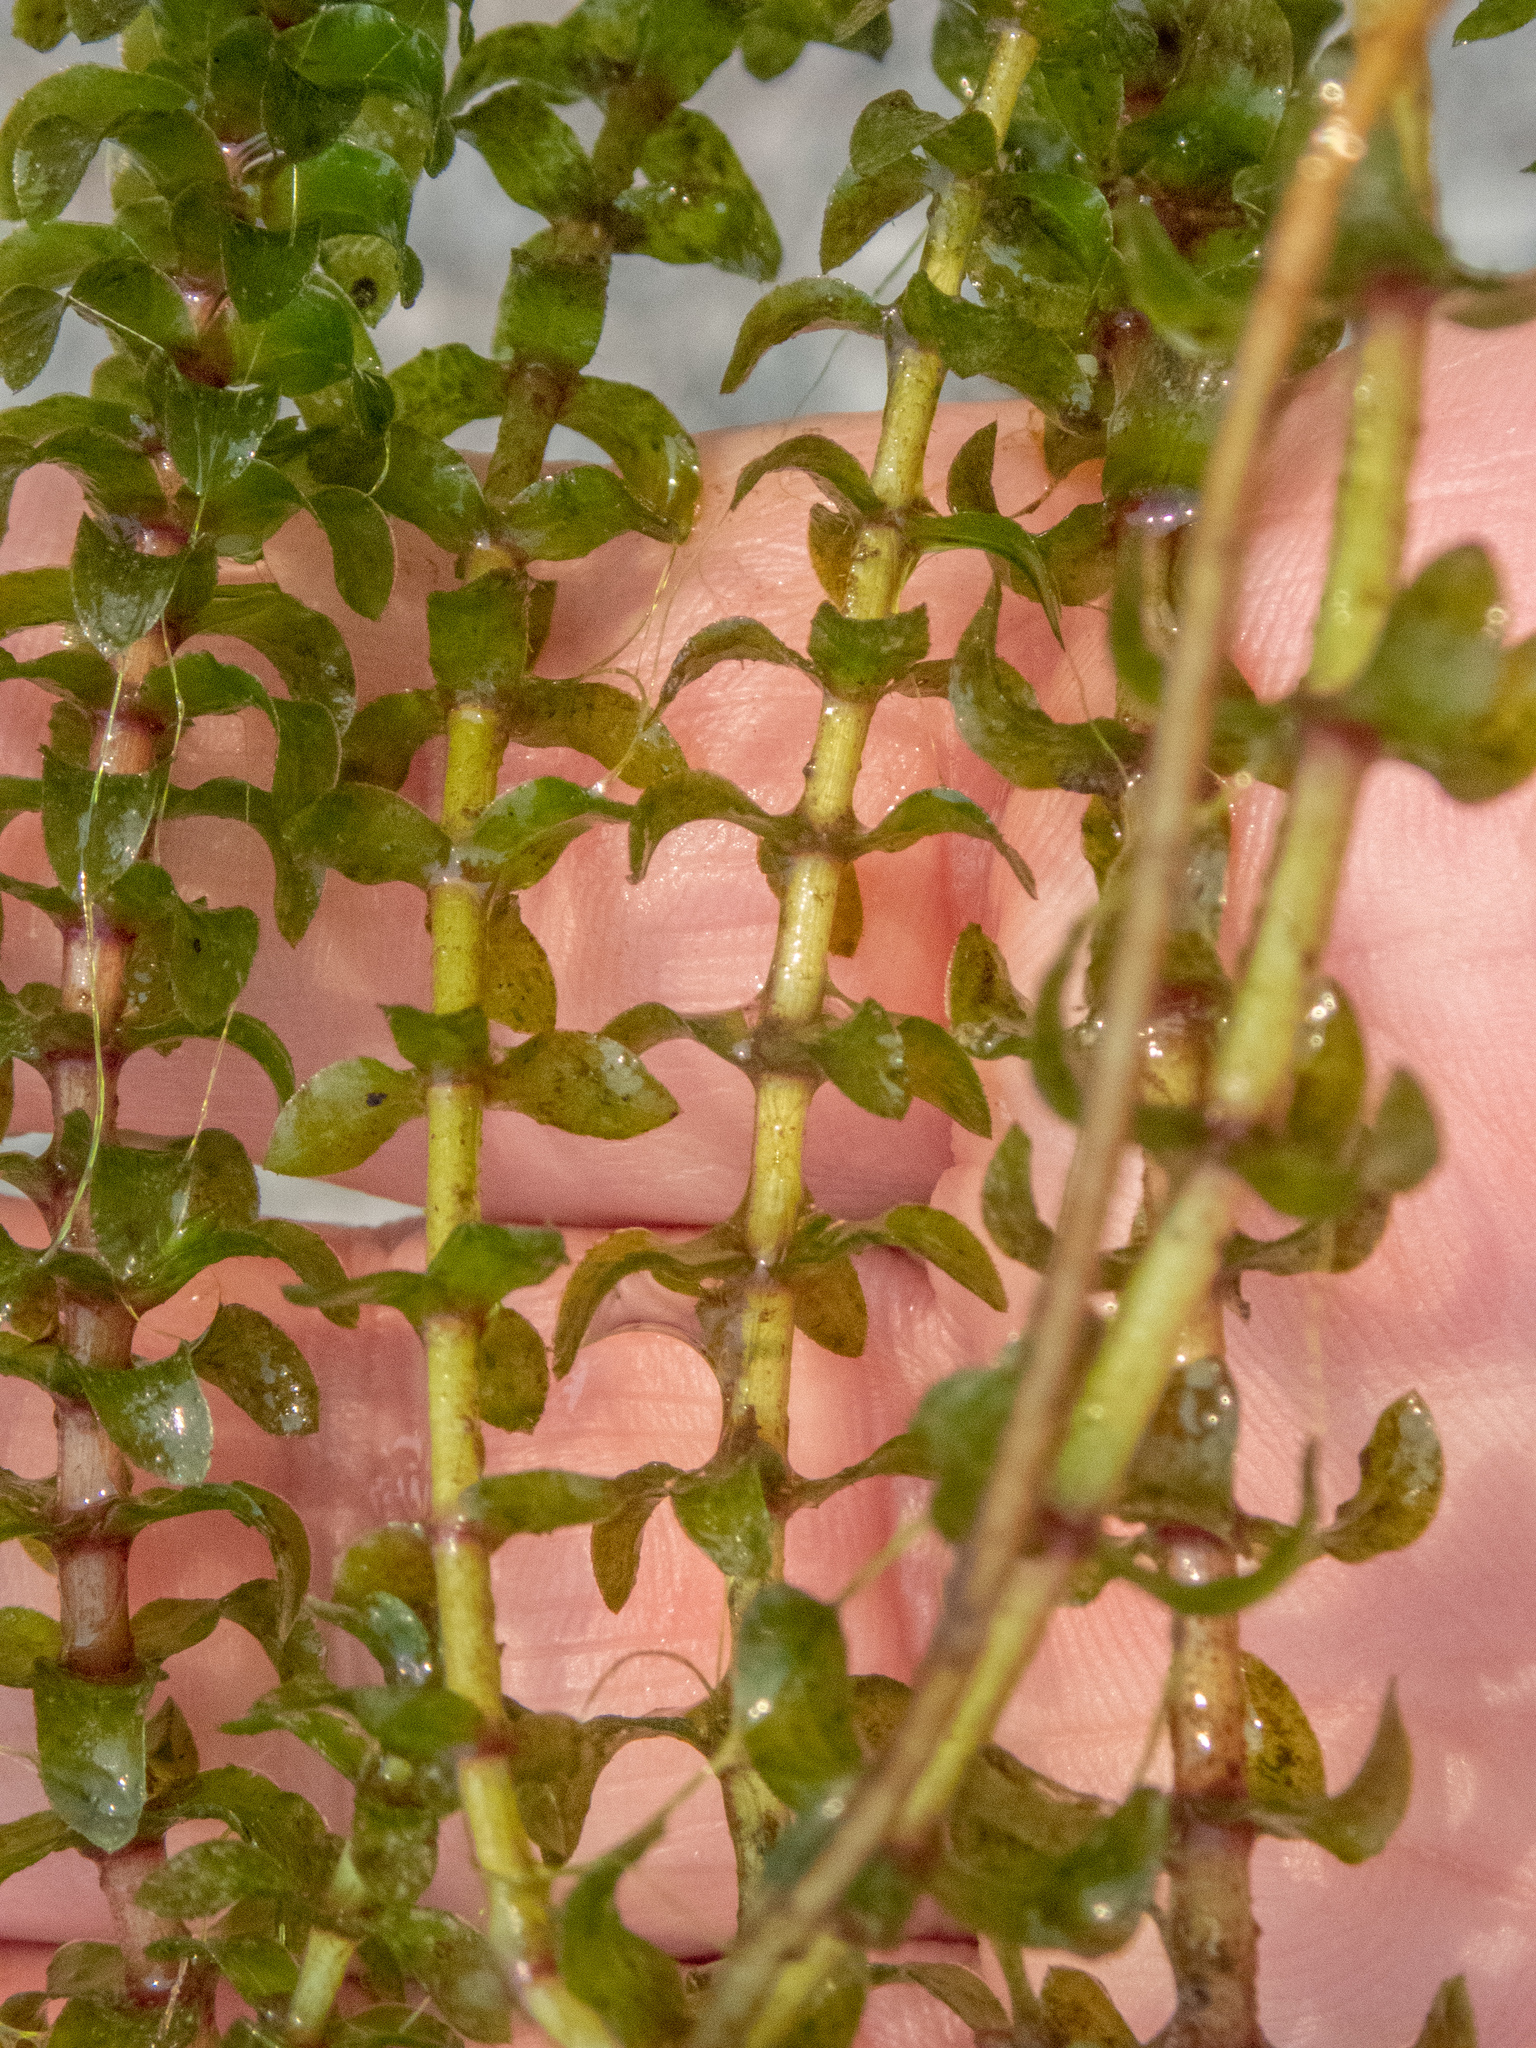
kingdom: Plantae
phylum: Tracheophyta
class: Liliopsida
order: Alismatales
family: Hydrocharitaceae
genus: Elodea
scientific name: Elodea canadensis
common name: Canadian waterweed
